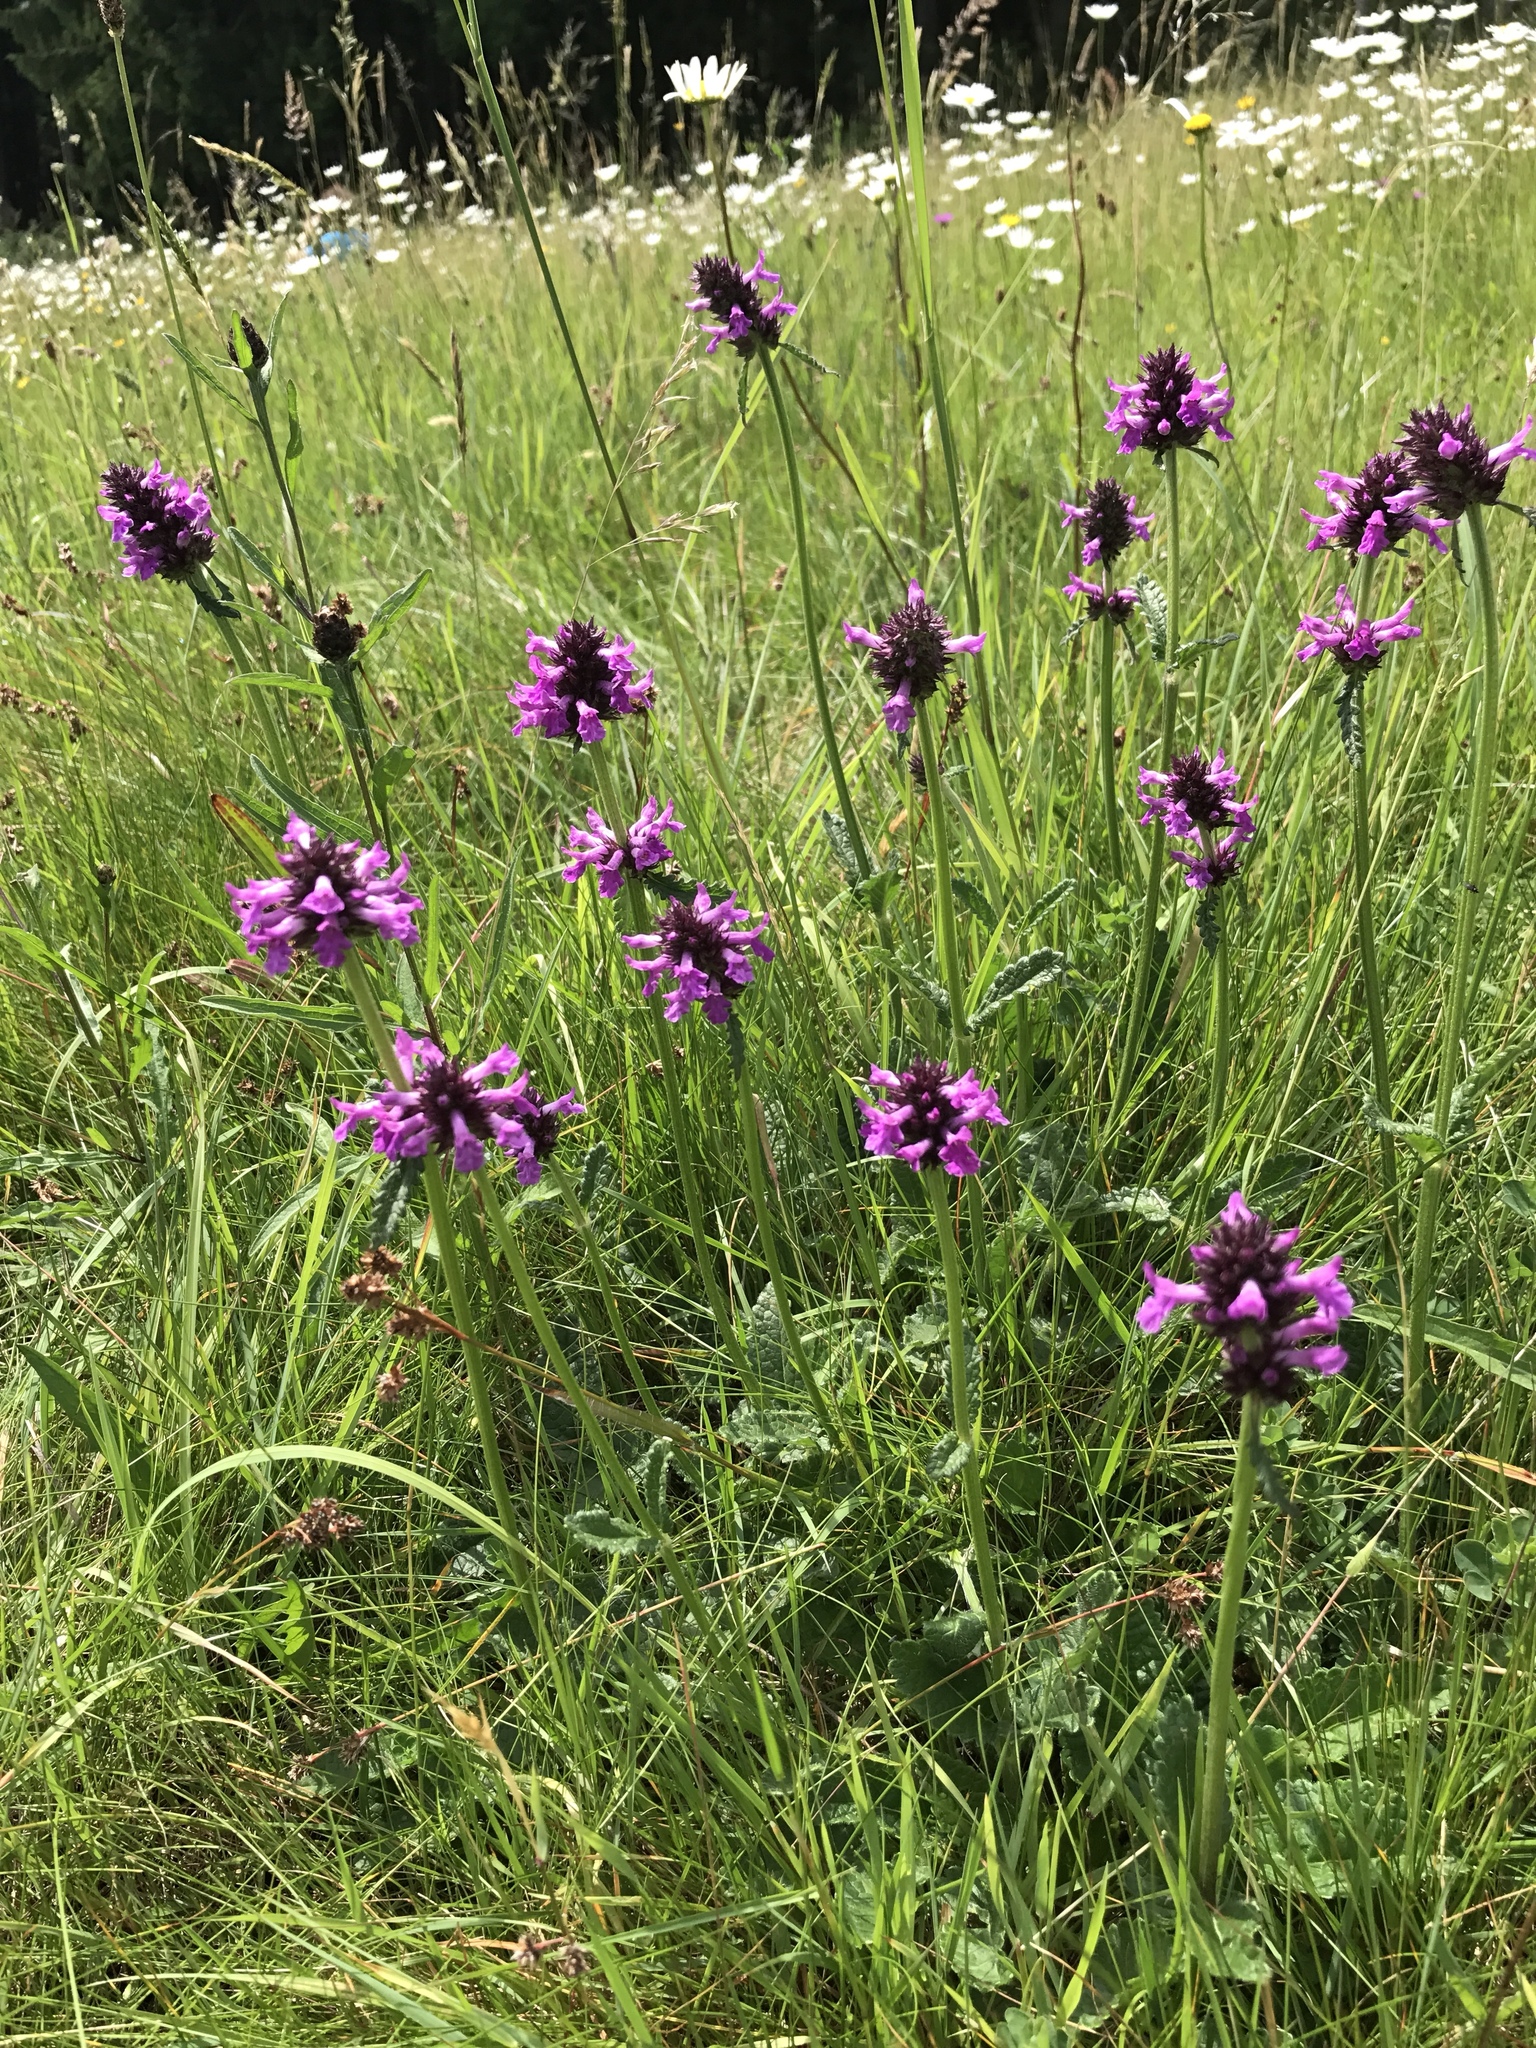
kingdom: Plantae
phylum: Tracheophyta
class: Magnoliopsida
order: Lamiales
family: Lamiaceae
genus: Betonica
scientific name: Betonica officinalis
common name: Bishop's-wort
